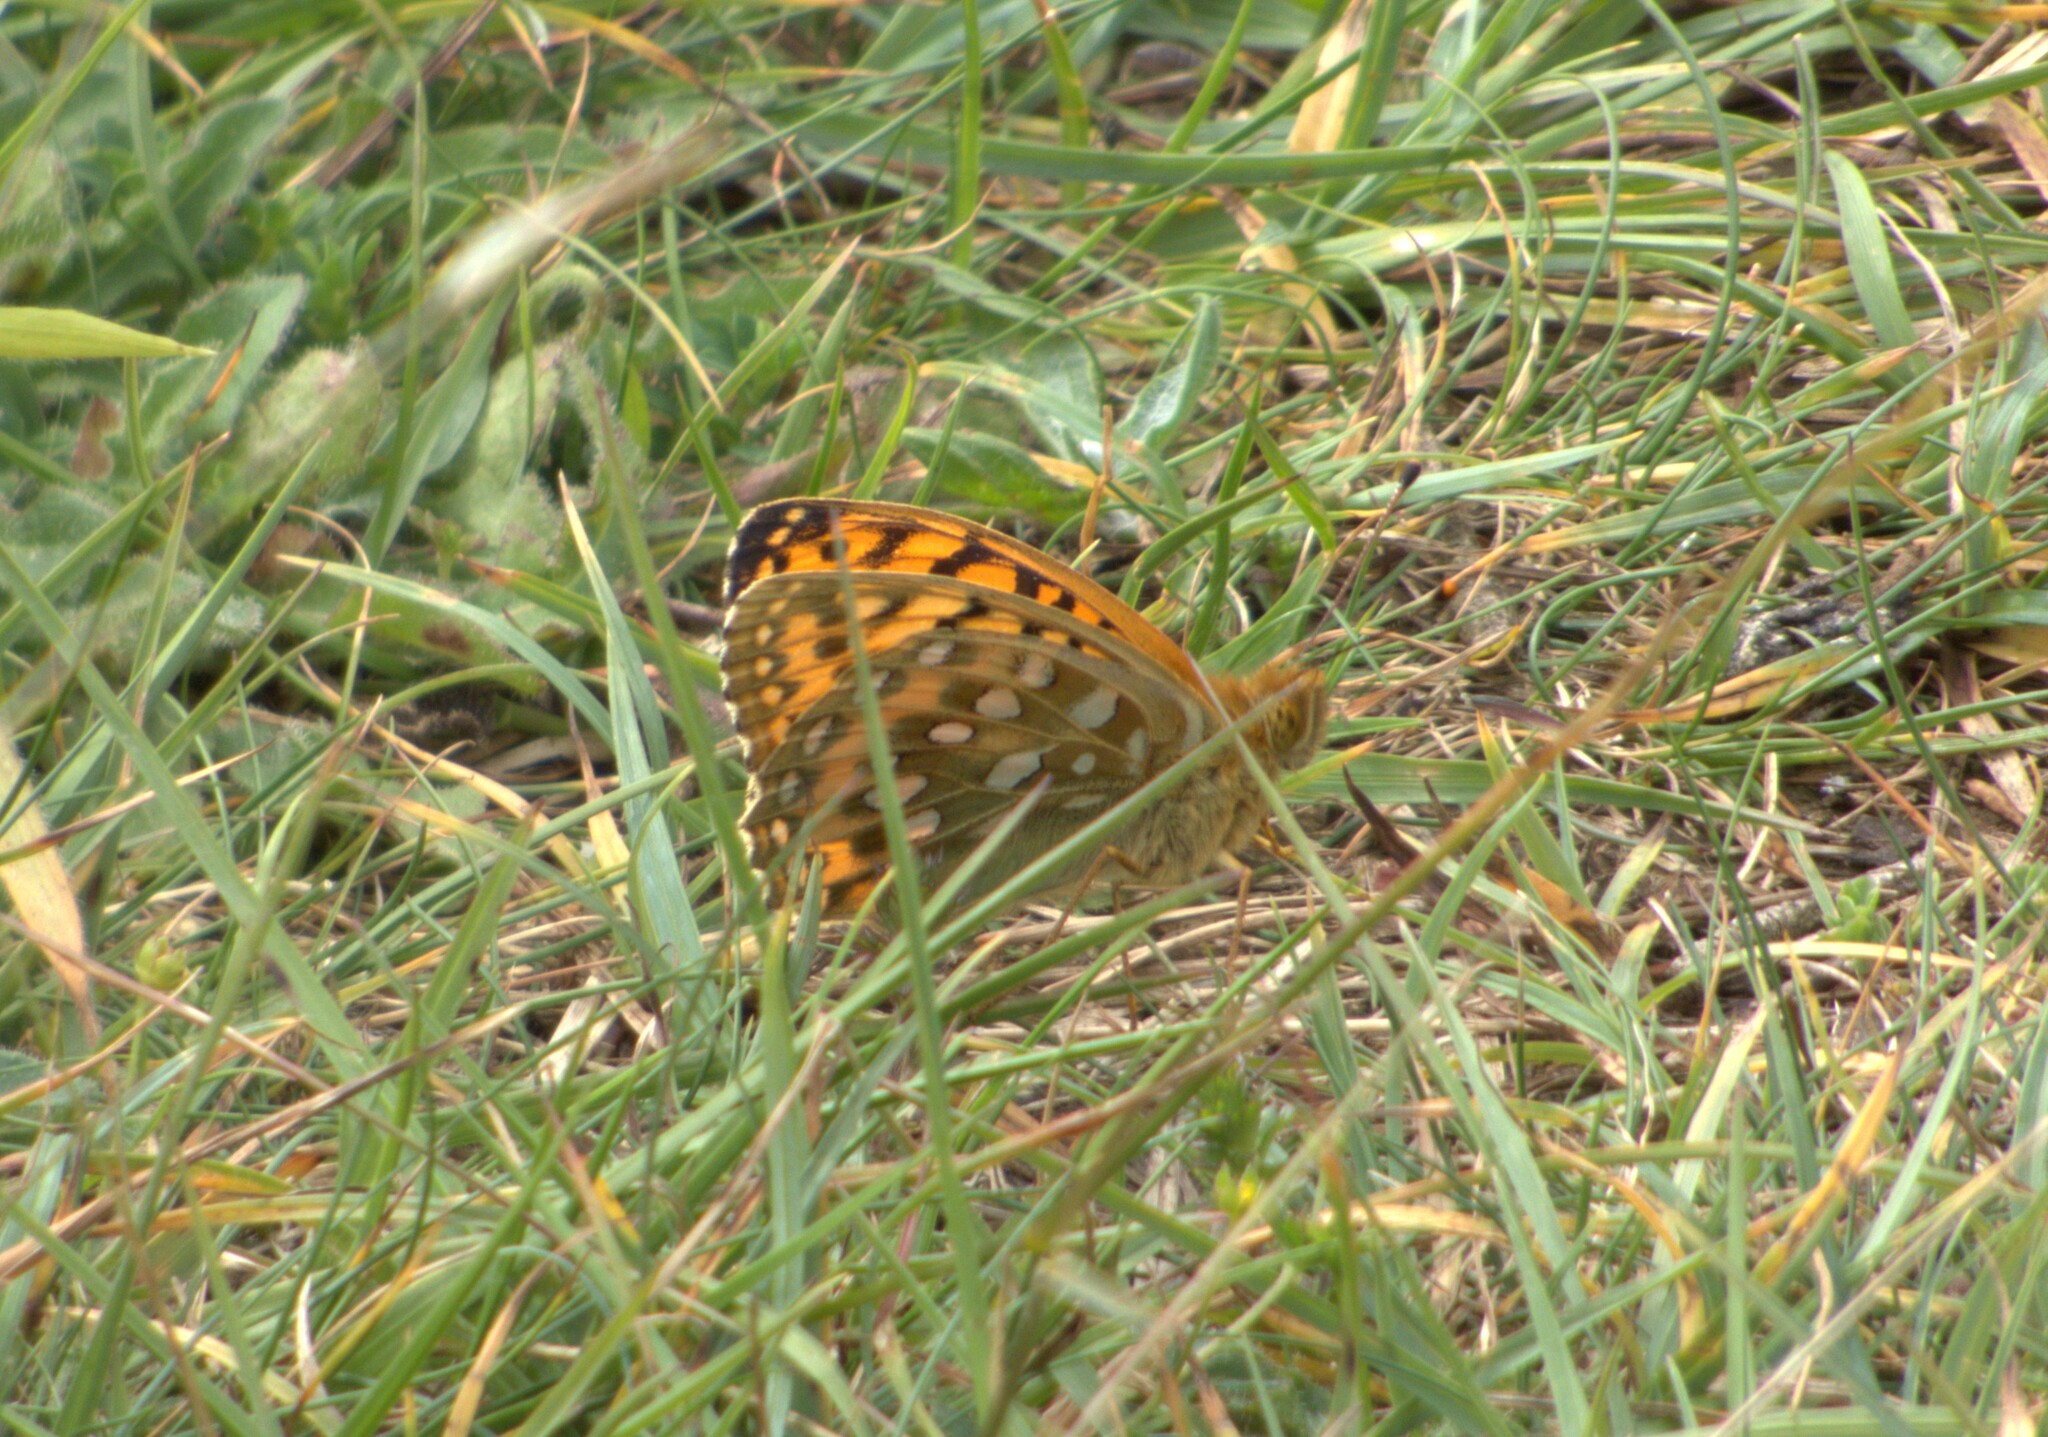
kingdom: Animalia
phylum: Arthropoda
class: Insecta
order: Lepidoptera
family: Nymphalidae
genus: Speyeria
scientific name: Speyeria aglaja
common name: Dark green fritillary
